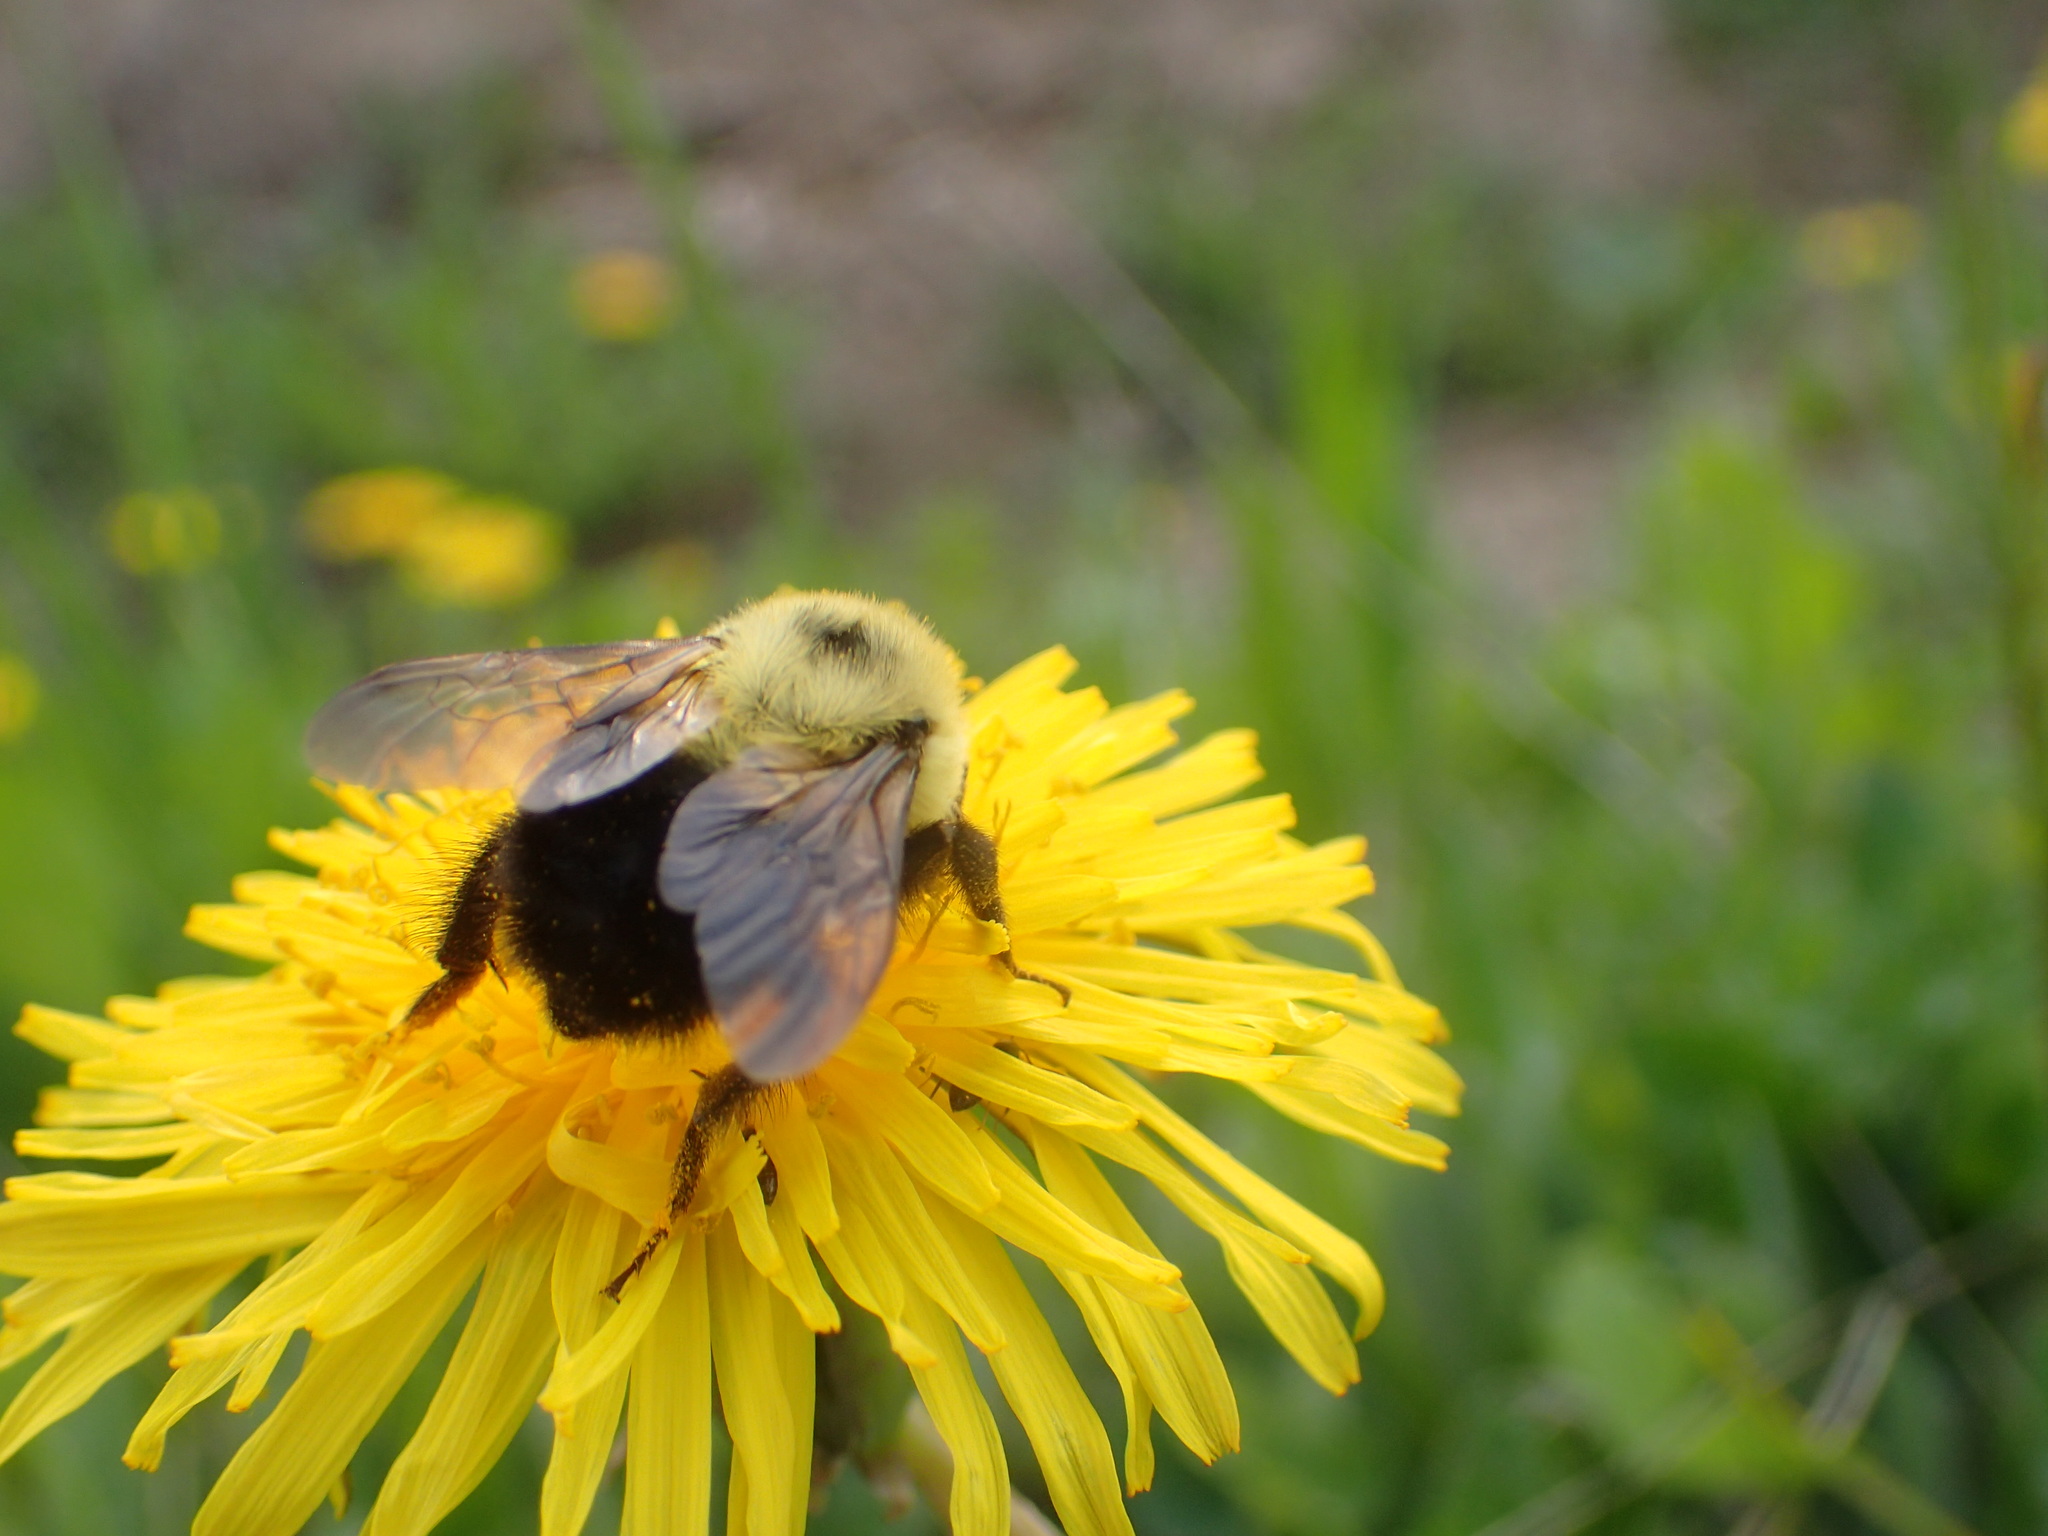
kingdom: Animalia
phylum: Arthropoda
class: Insecta
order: Hymenoptera
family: Apidae
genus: Bombus
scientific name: Bombus bimaculatus
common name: Two-spotted bumble bee
